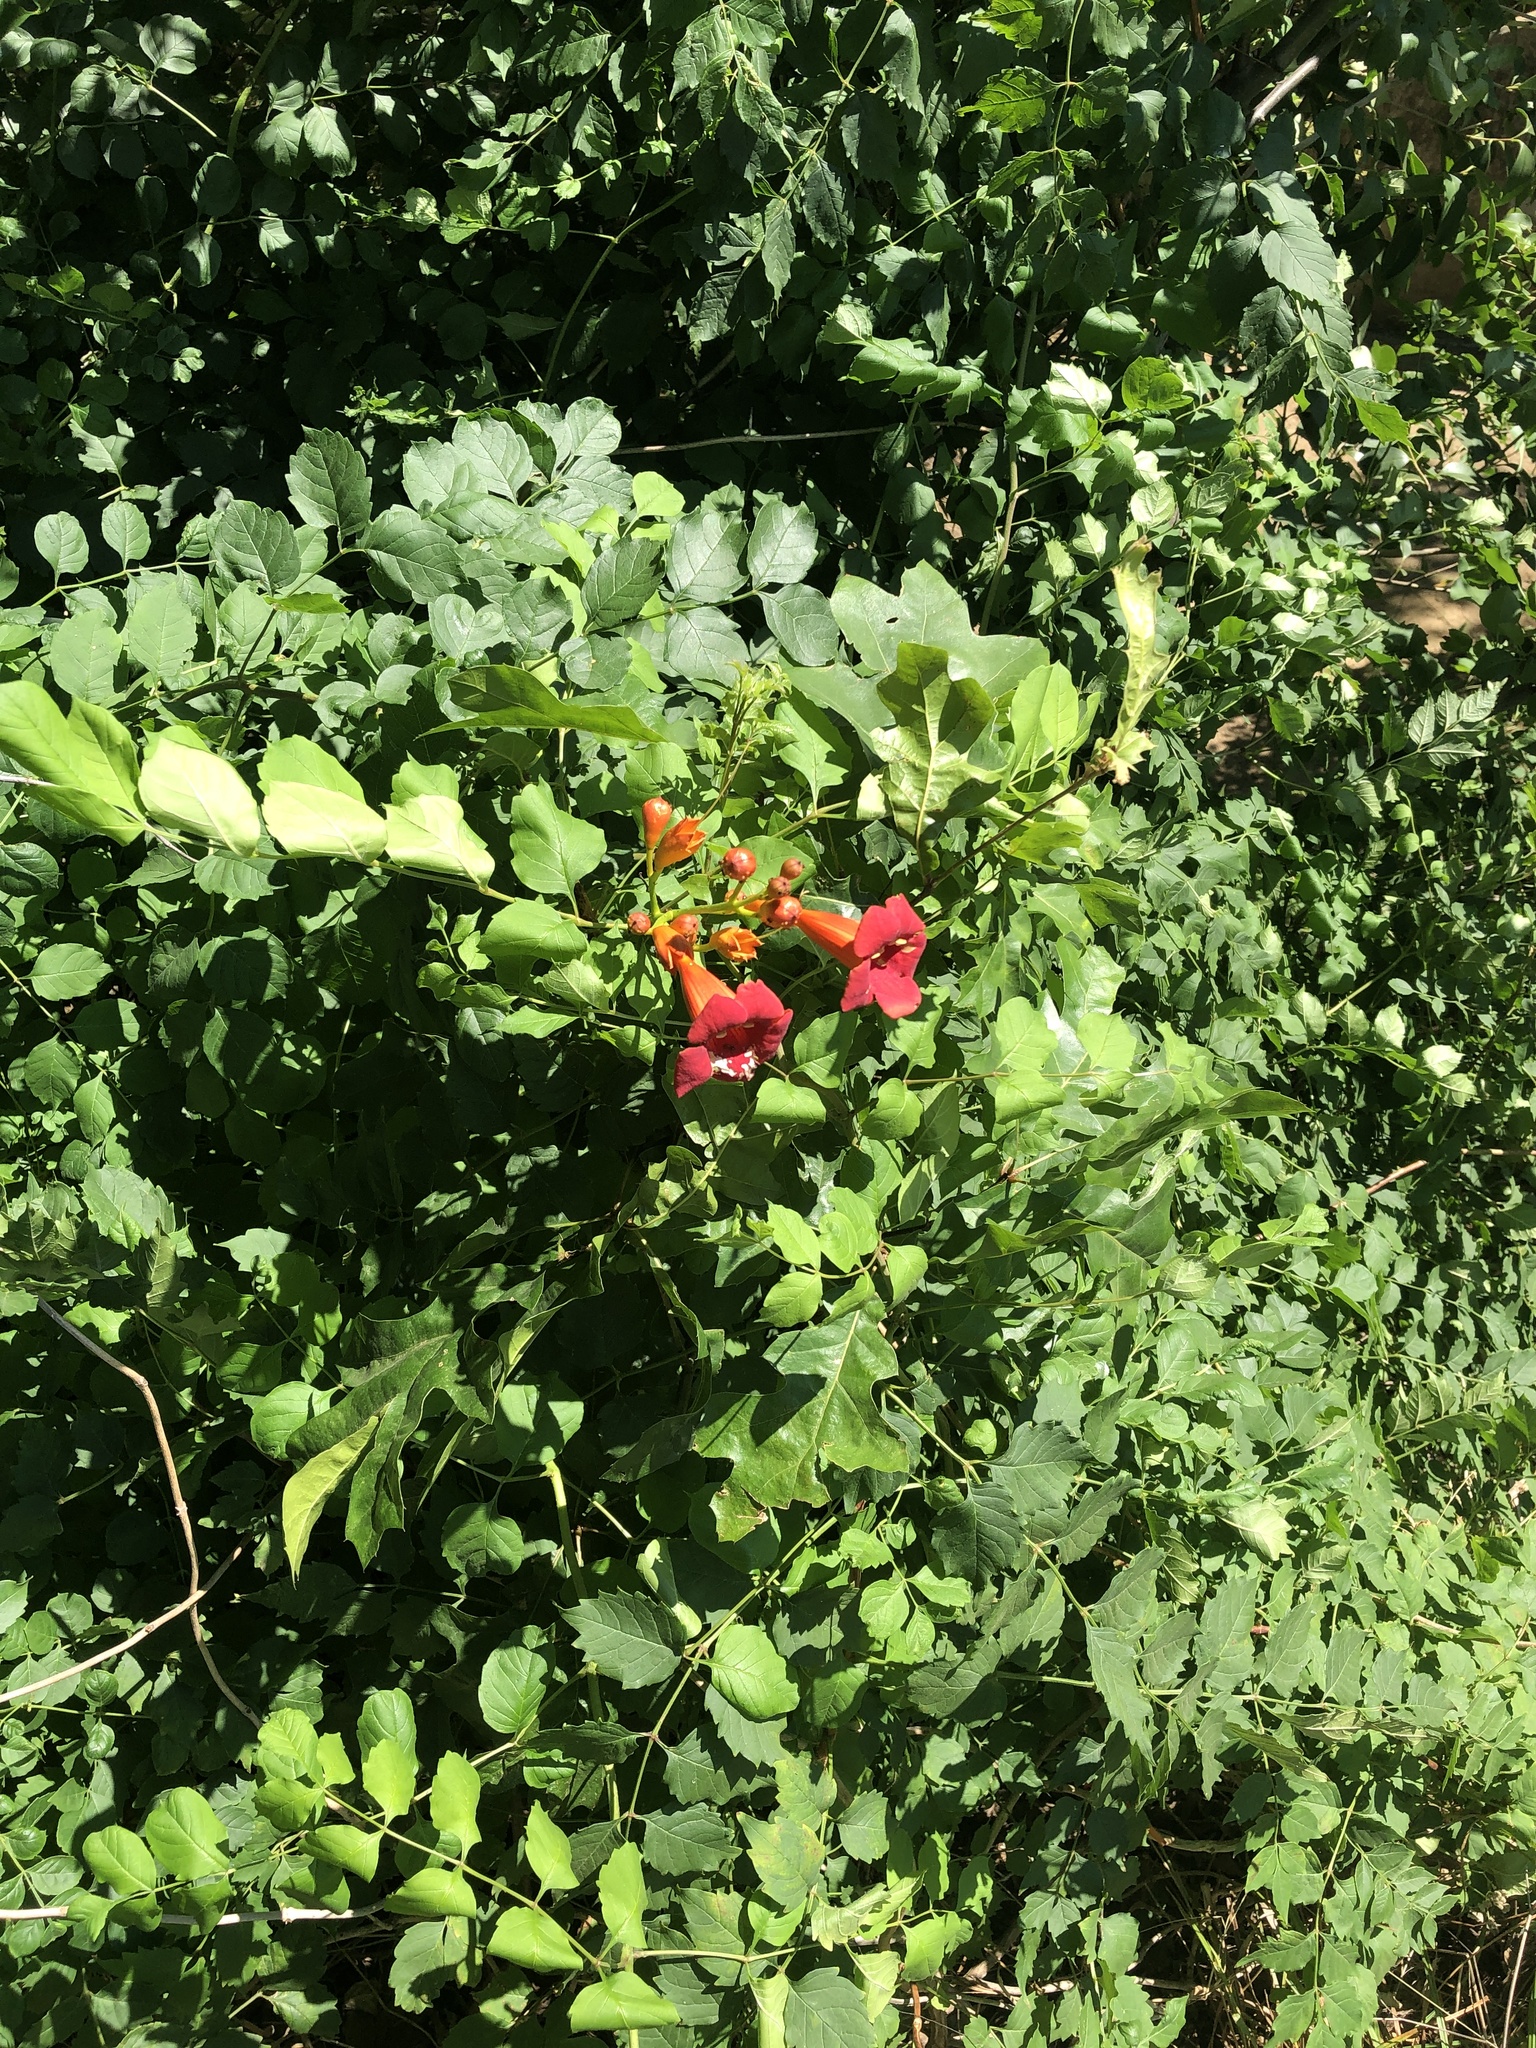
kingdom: Plantae
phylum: Tracheophyta
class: Magnoliopsida
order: Lamiales
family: Bignoniaceae
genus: Campsis
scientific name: Campsis radicans
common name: Trumpet-creeper
